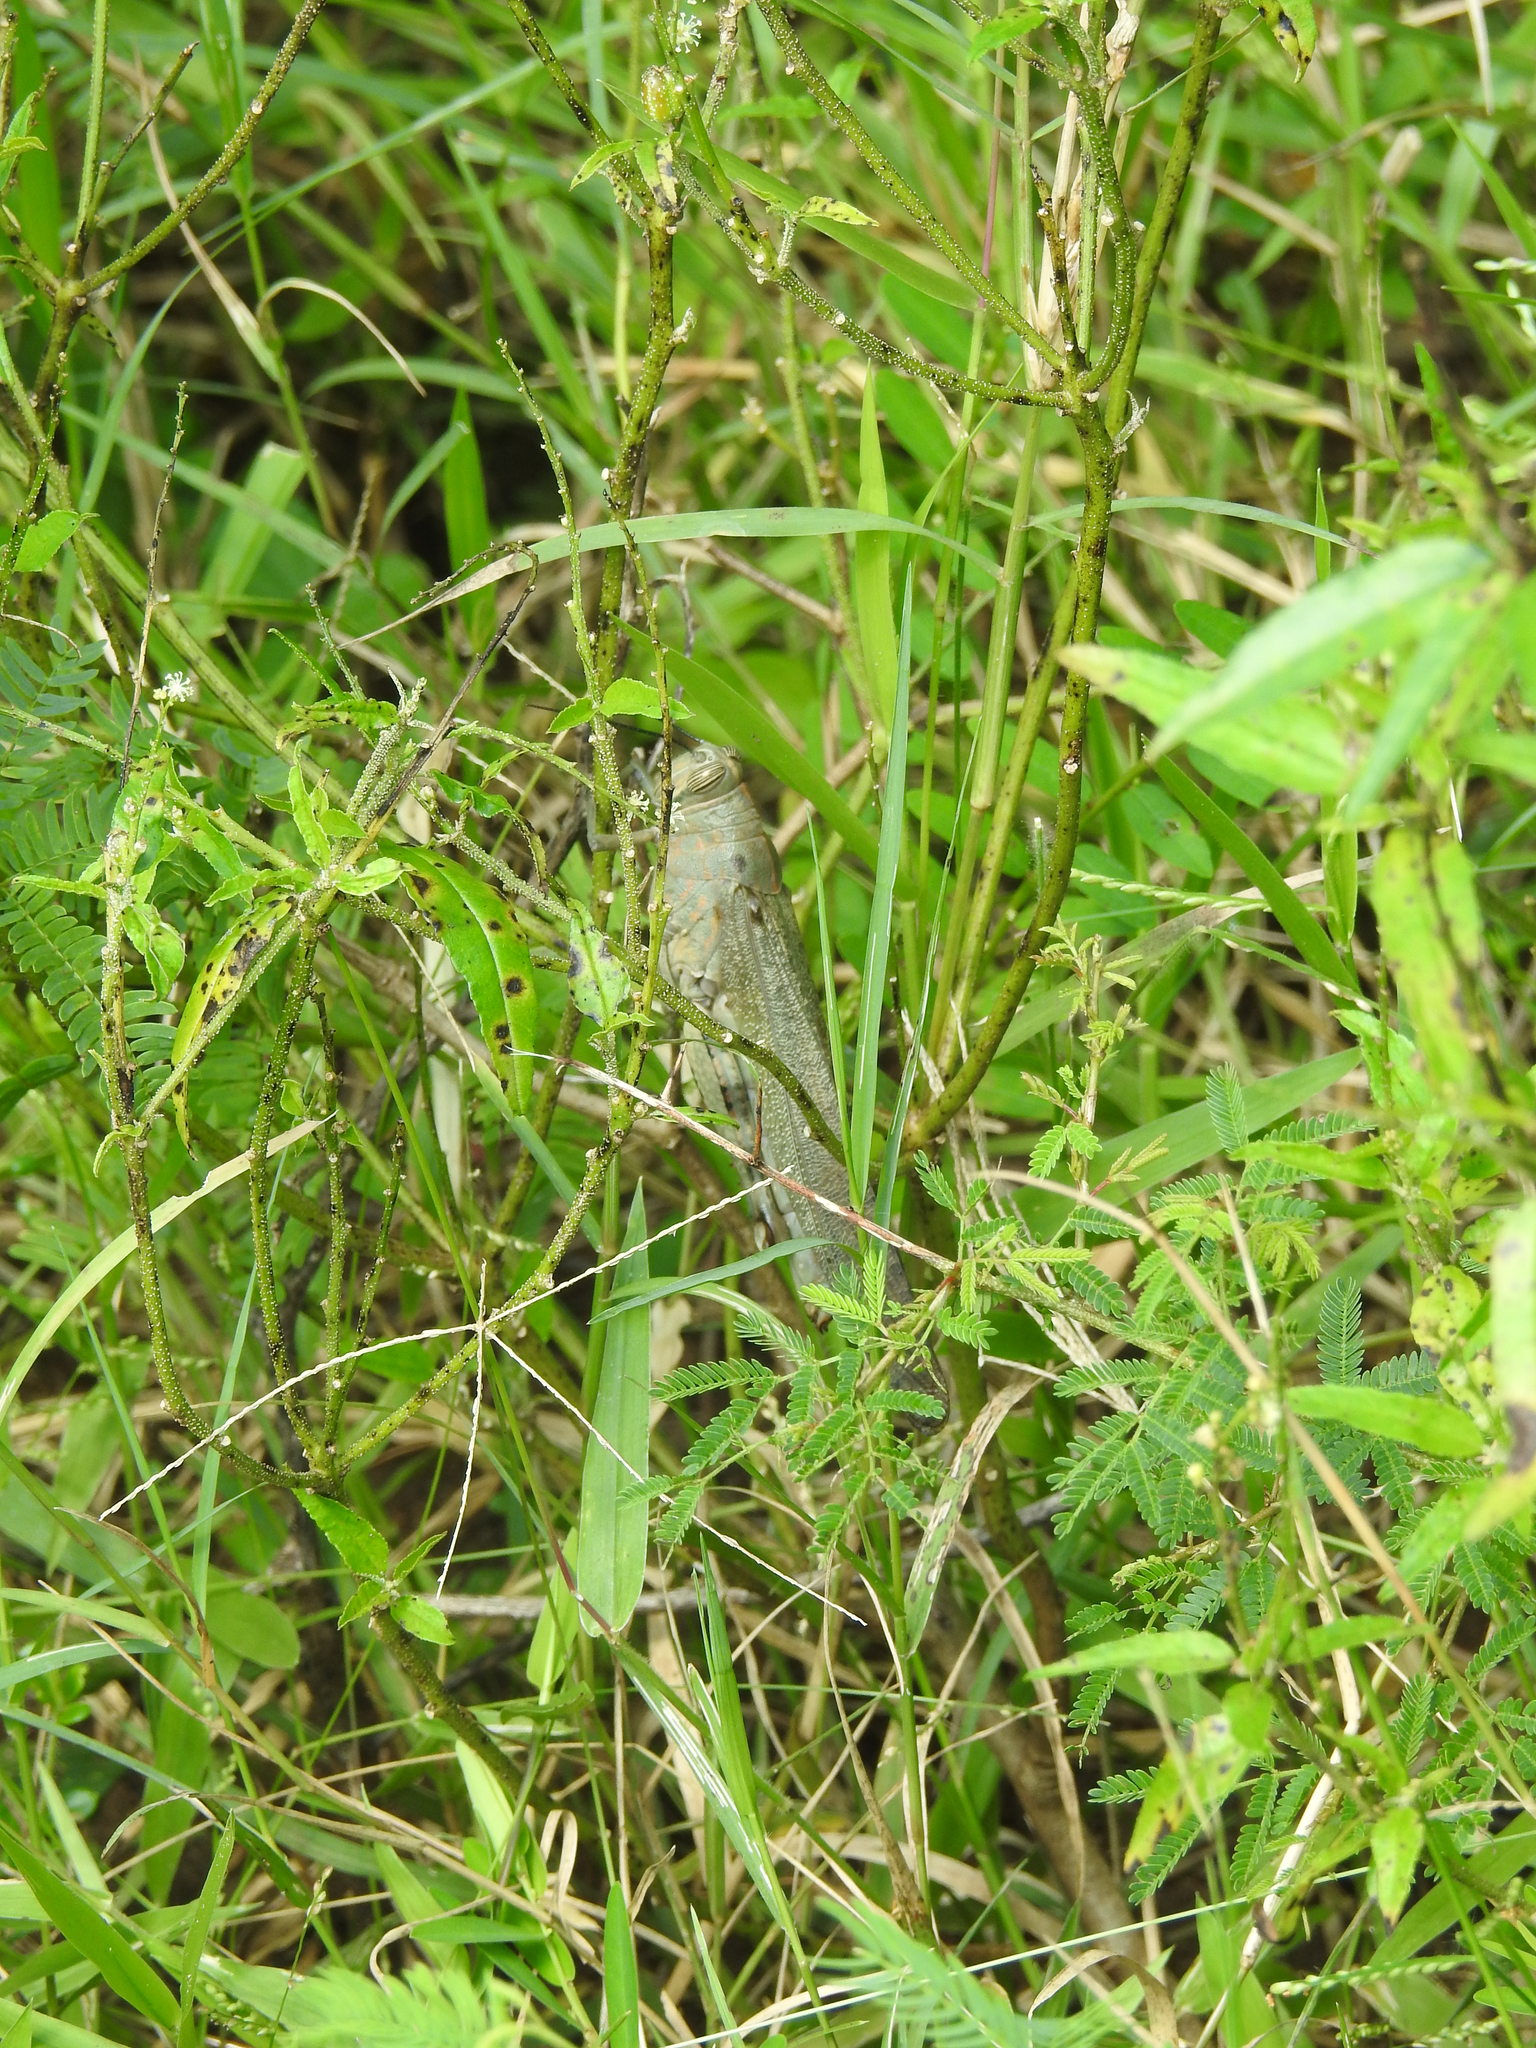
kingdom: Animalia
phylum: Arthropoda
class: Insecta
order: Orthoptera
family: Acrididae
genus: Anacridium
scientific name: Anacridium flavescens
